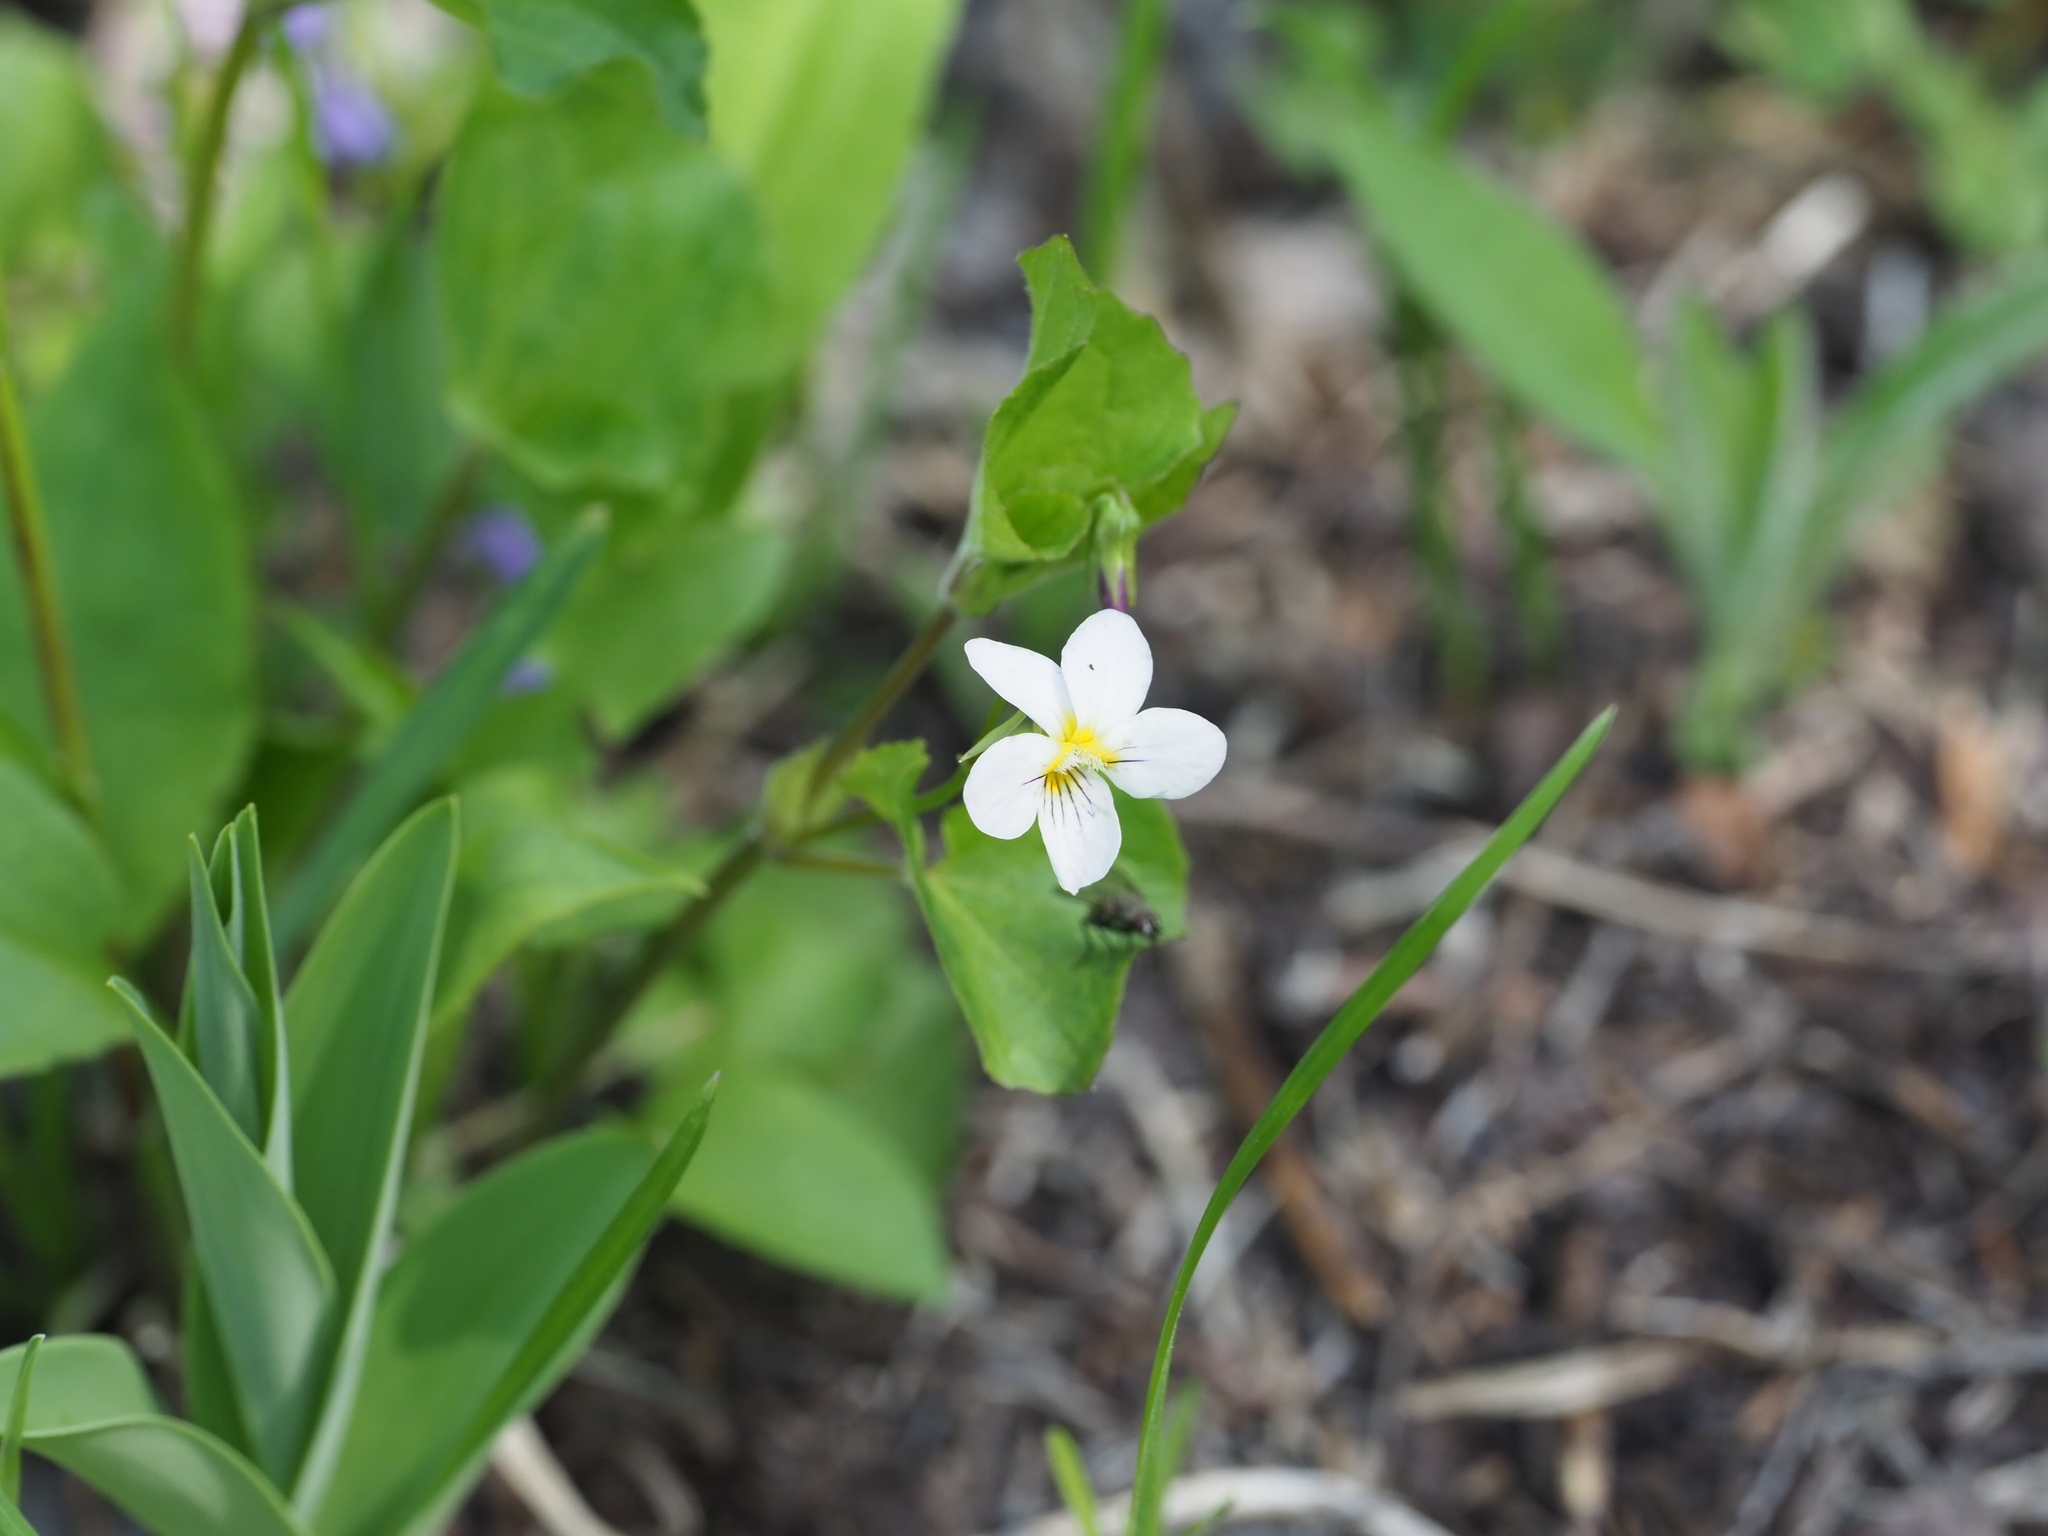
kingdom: Plantae
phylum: Tracheophyta
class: Magnoliopsida
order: Malpighiales
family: Violaceae
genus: Viola
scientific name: Viola canadensis
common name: Canada violet
